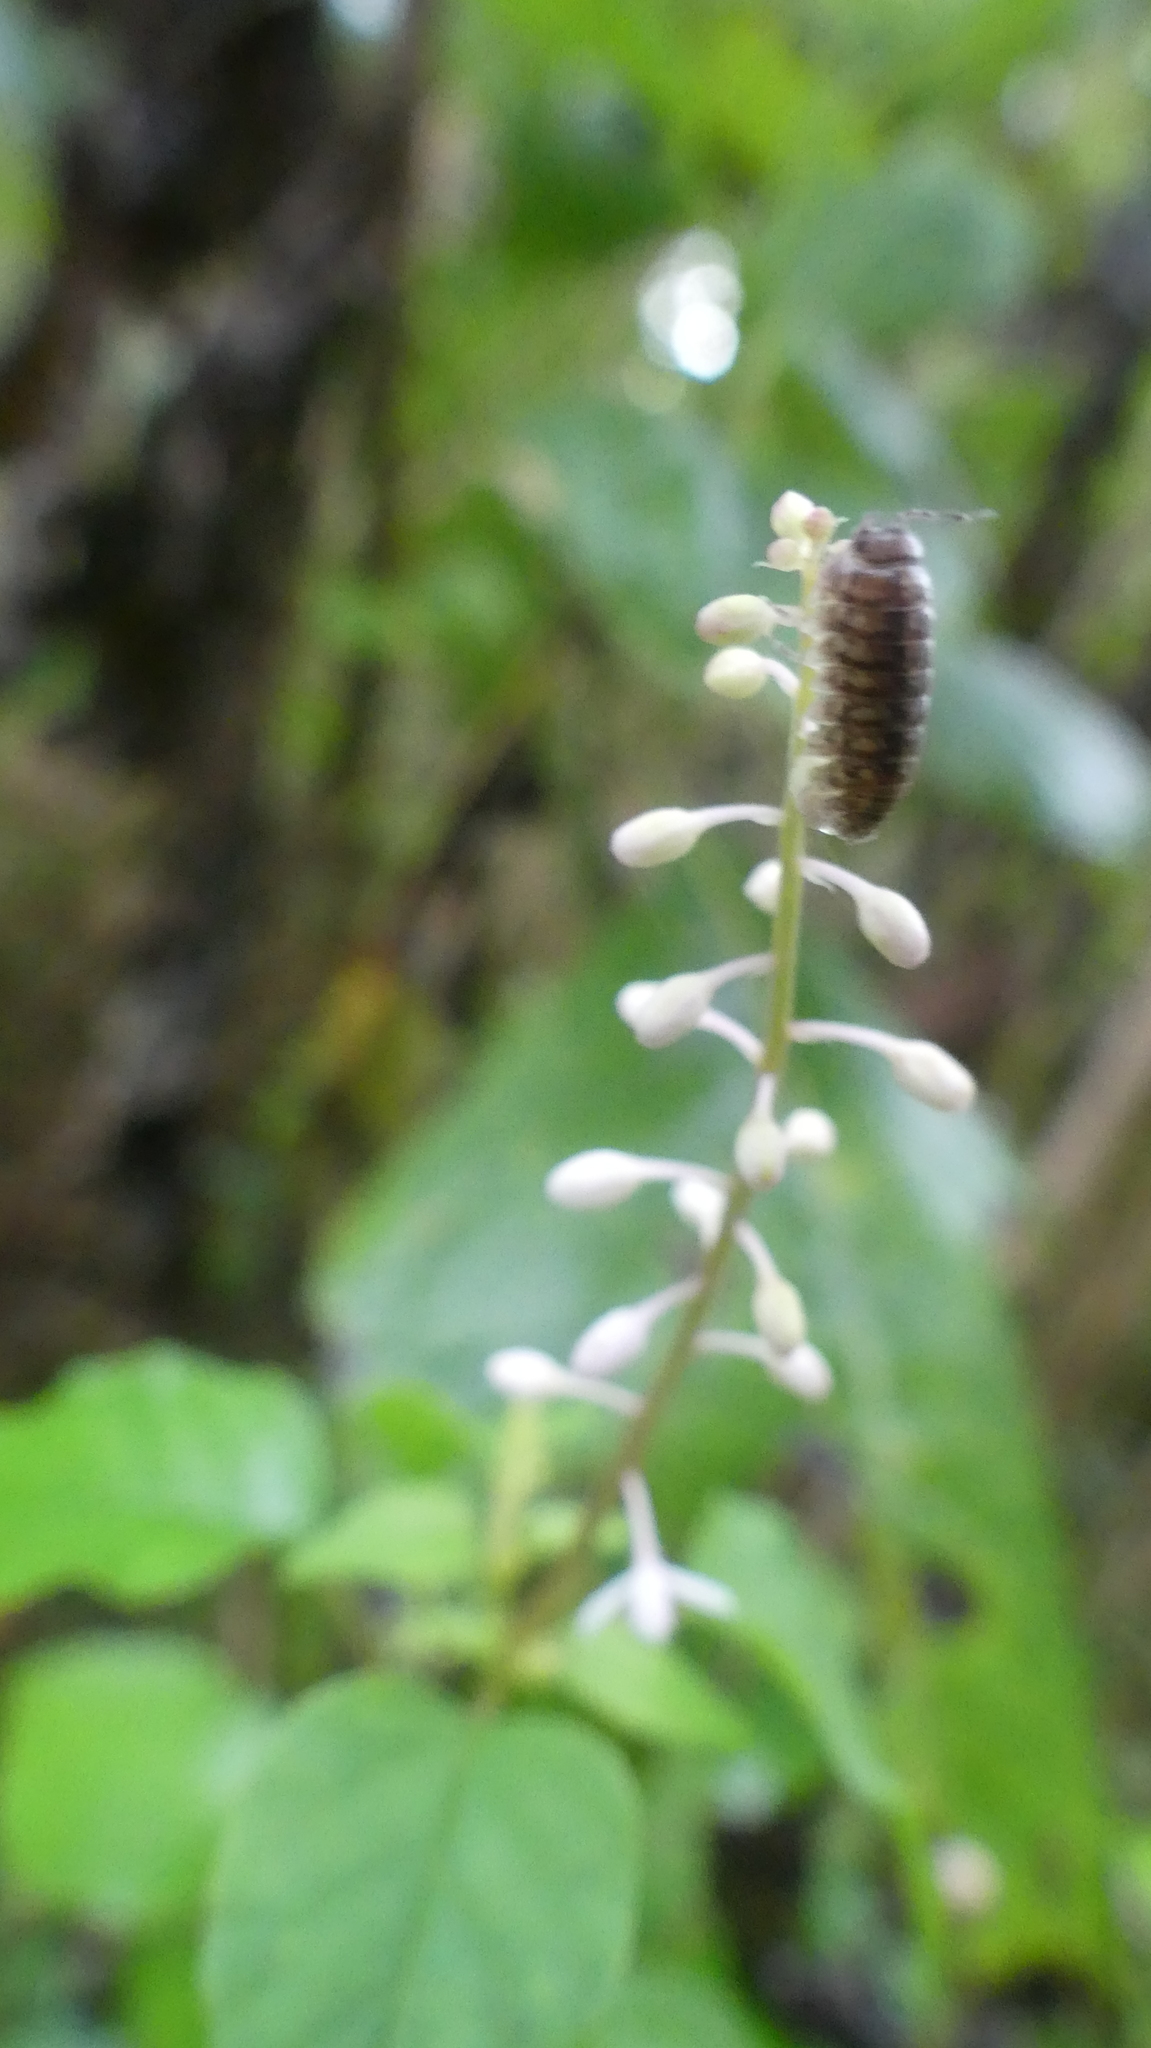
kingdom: Plantae
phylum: Tracheophyta
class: Magnoliopsida
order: Caryophyllales
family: Phytolaccaceae
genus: Rivina
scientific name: Rivina humilis
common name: Rougeplant
